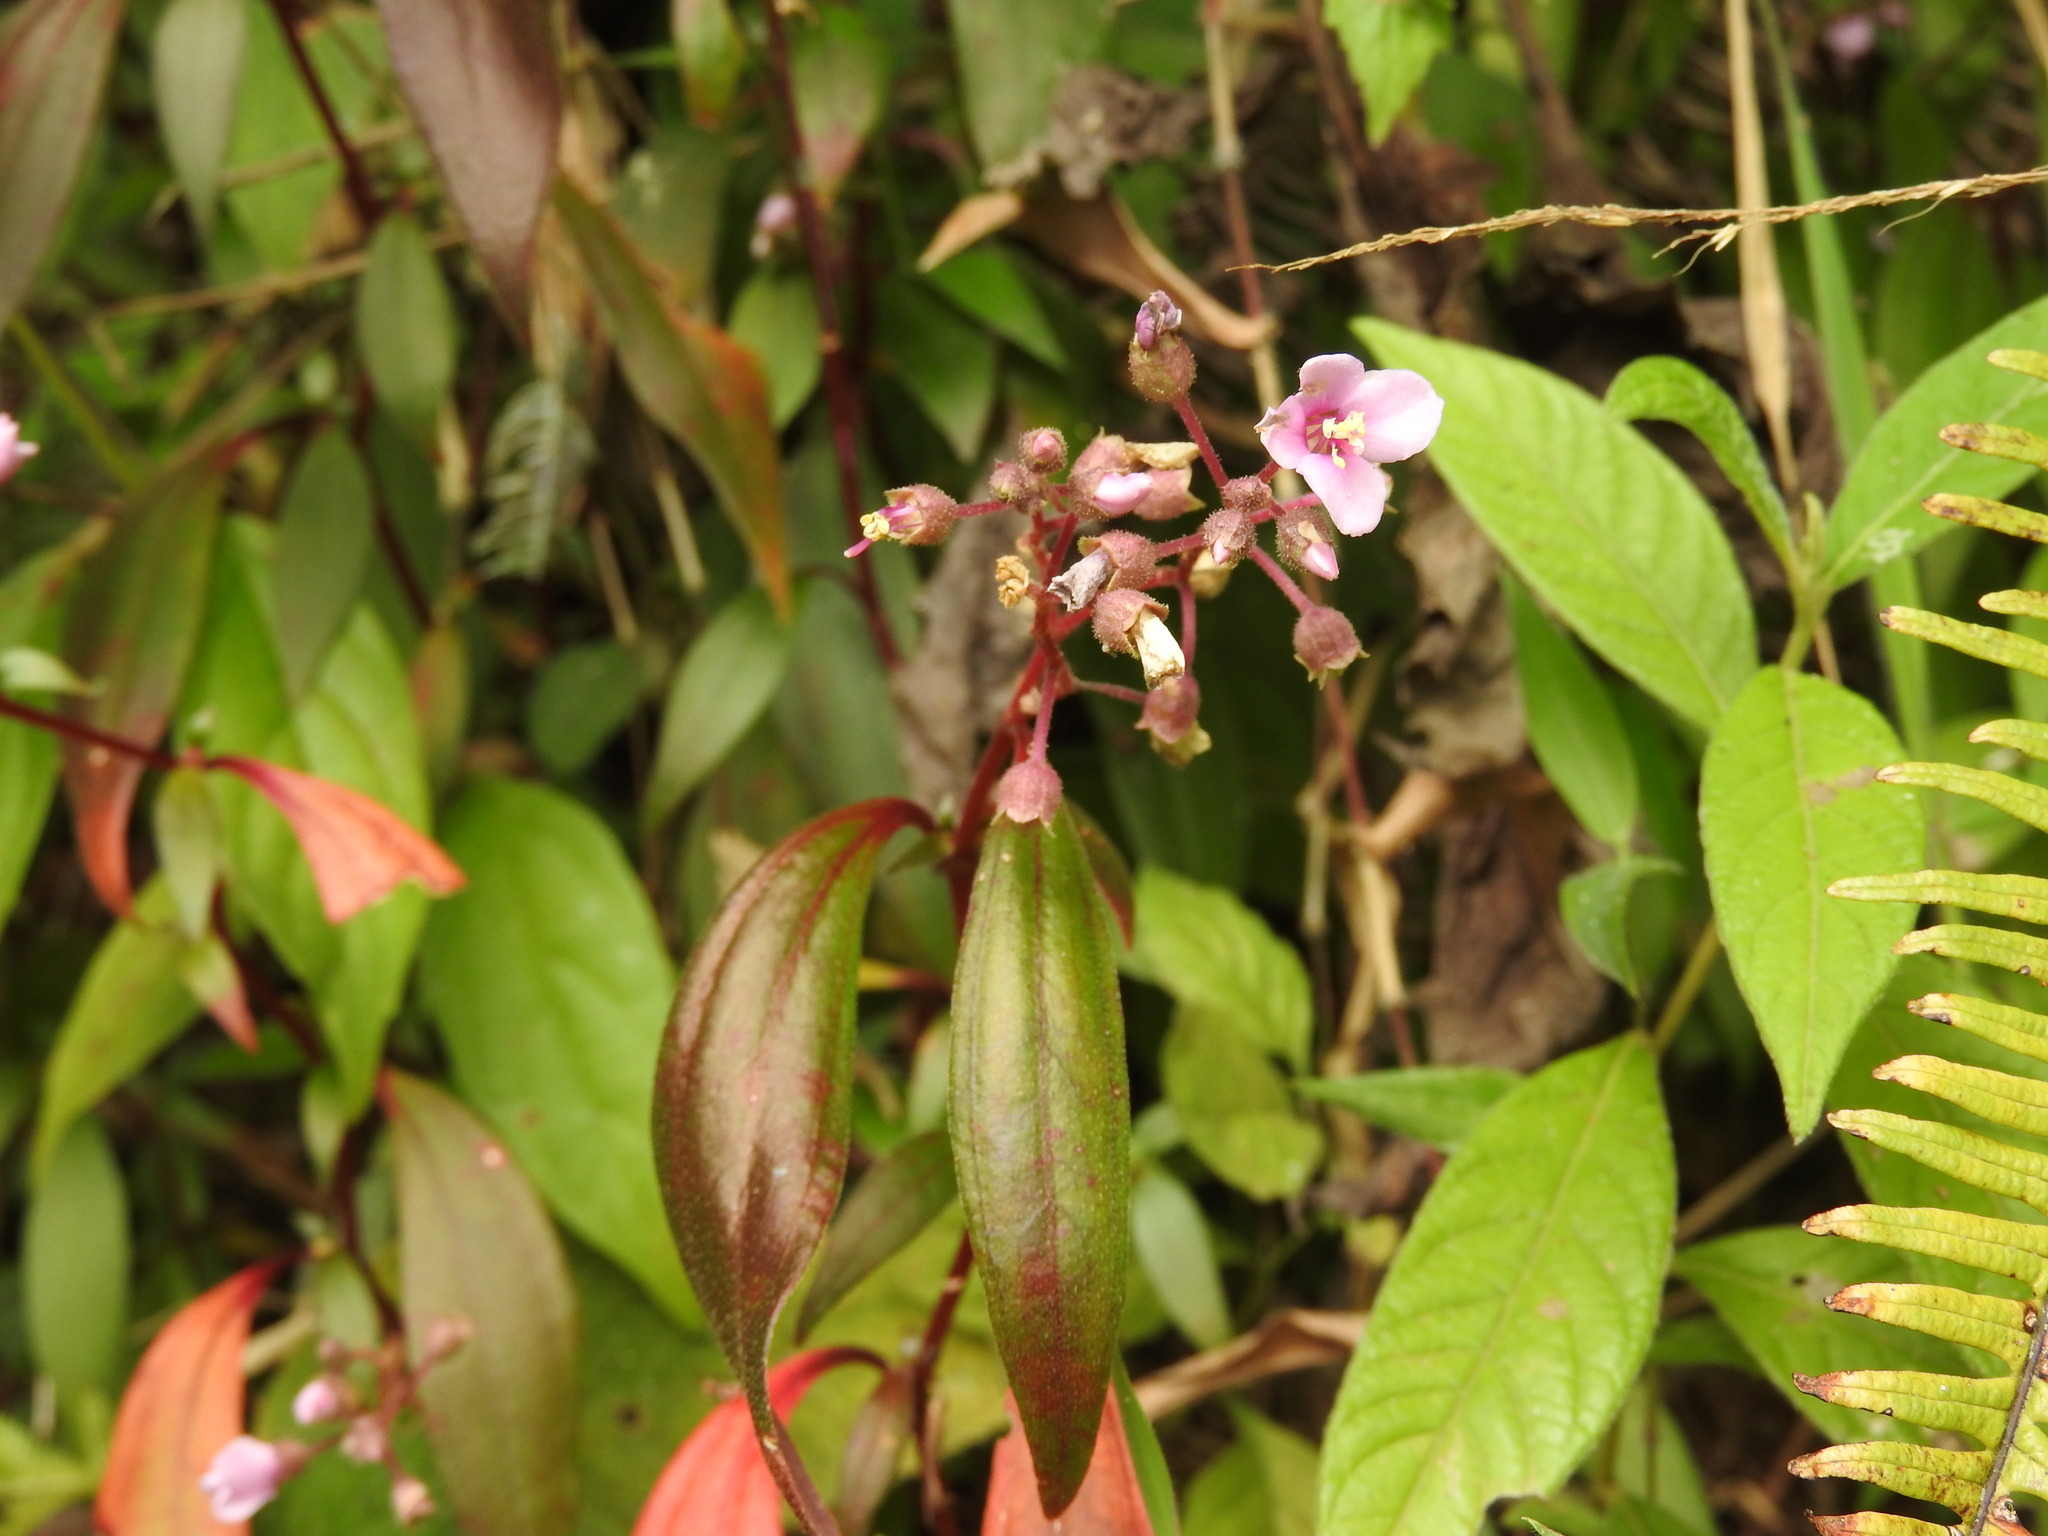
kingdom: Plantae
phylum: Tracheophyta
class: Magnoliopsida
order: Myrtales
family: Melastomataceae
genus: Centradenia
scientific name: Centradenia floribunda
